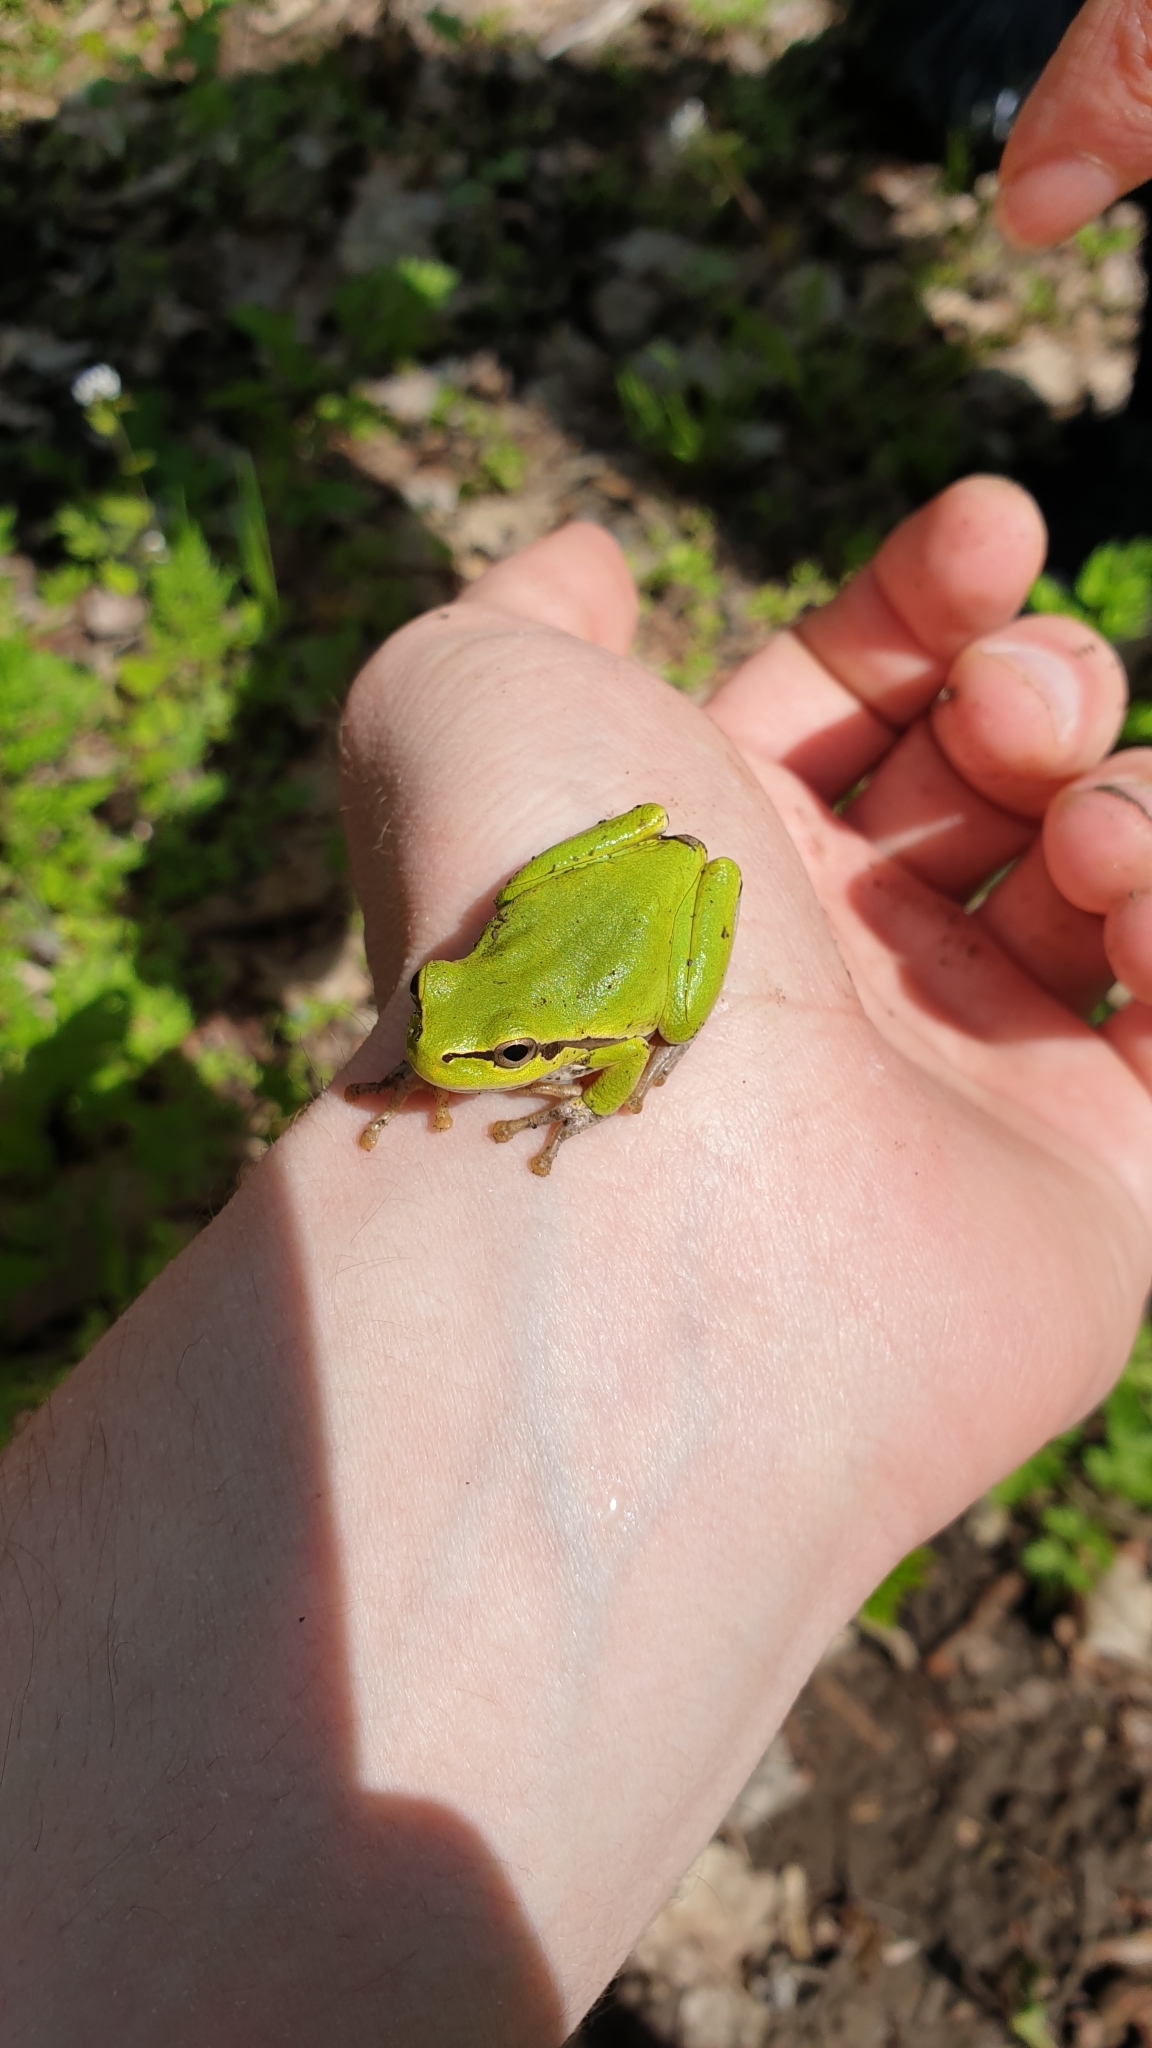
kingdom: Animalia
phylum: Chordata
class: Amphibia
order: Anura
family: Hylidae
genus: Hyla
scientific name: Hyla orientalis
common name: Caucasian treefrog
